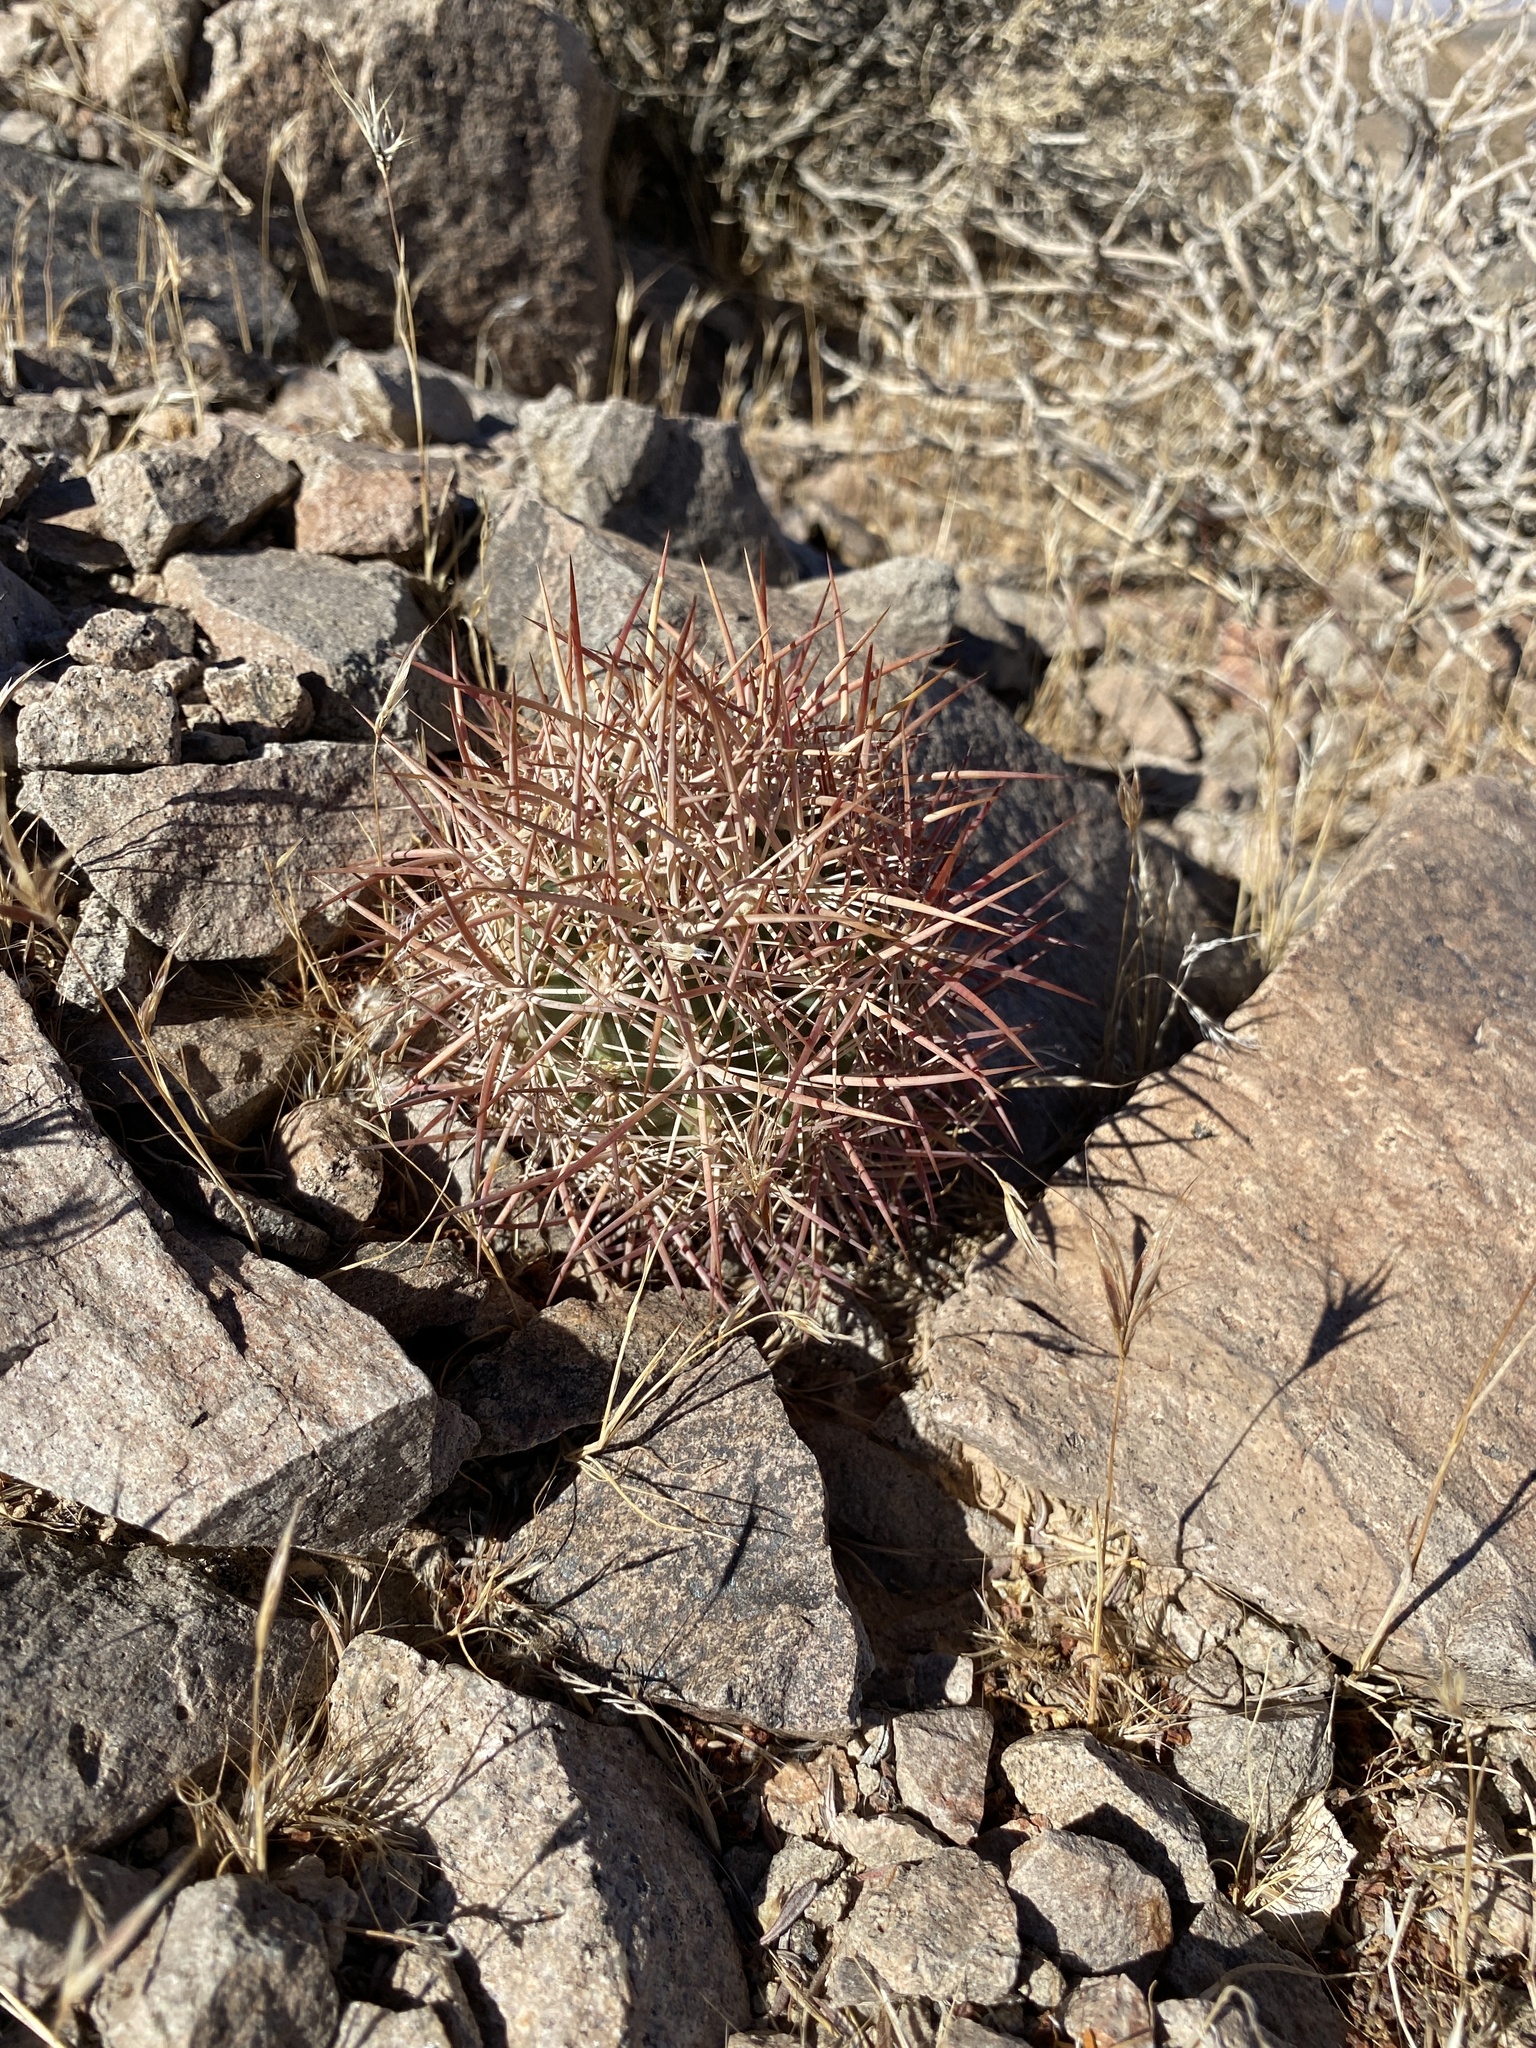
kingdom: Plantae
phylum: Tracheophyta
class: Magnoliopsida
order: Caryophyllales
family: Cactaceae
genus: Sclerocactus
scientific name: Sclerocactus johnsonii
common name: Eight-spine fishhook cactus
